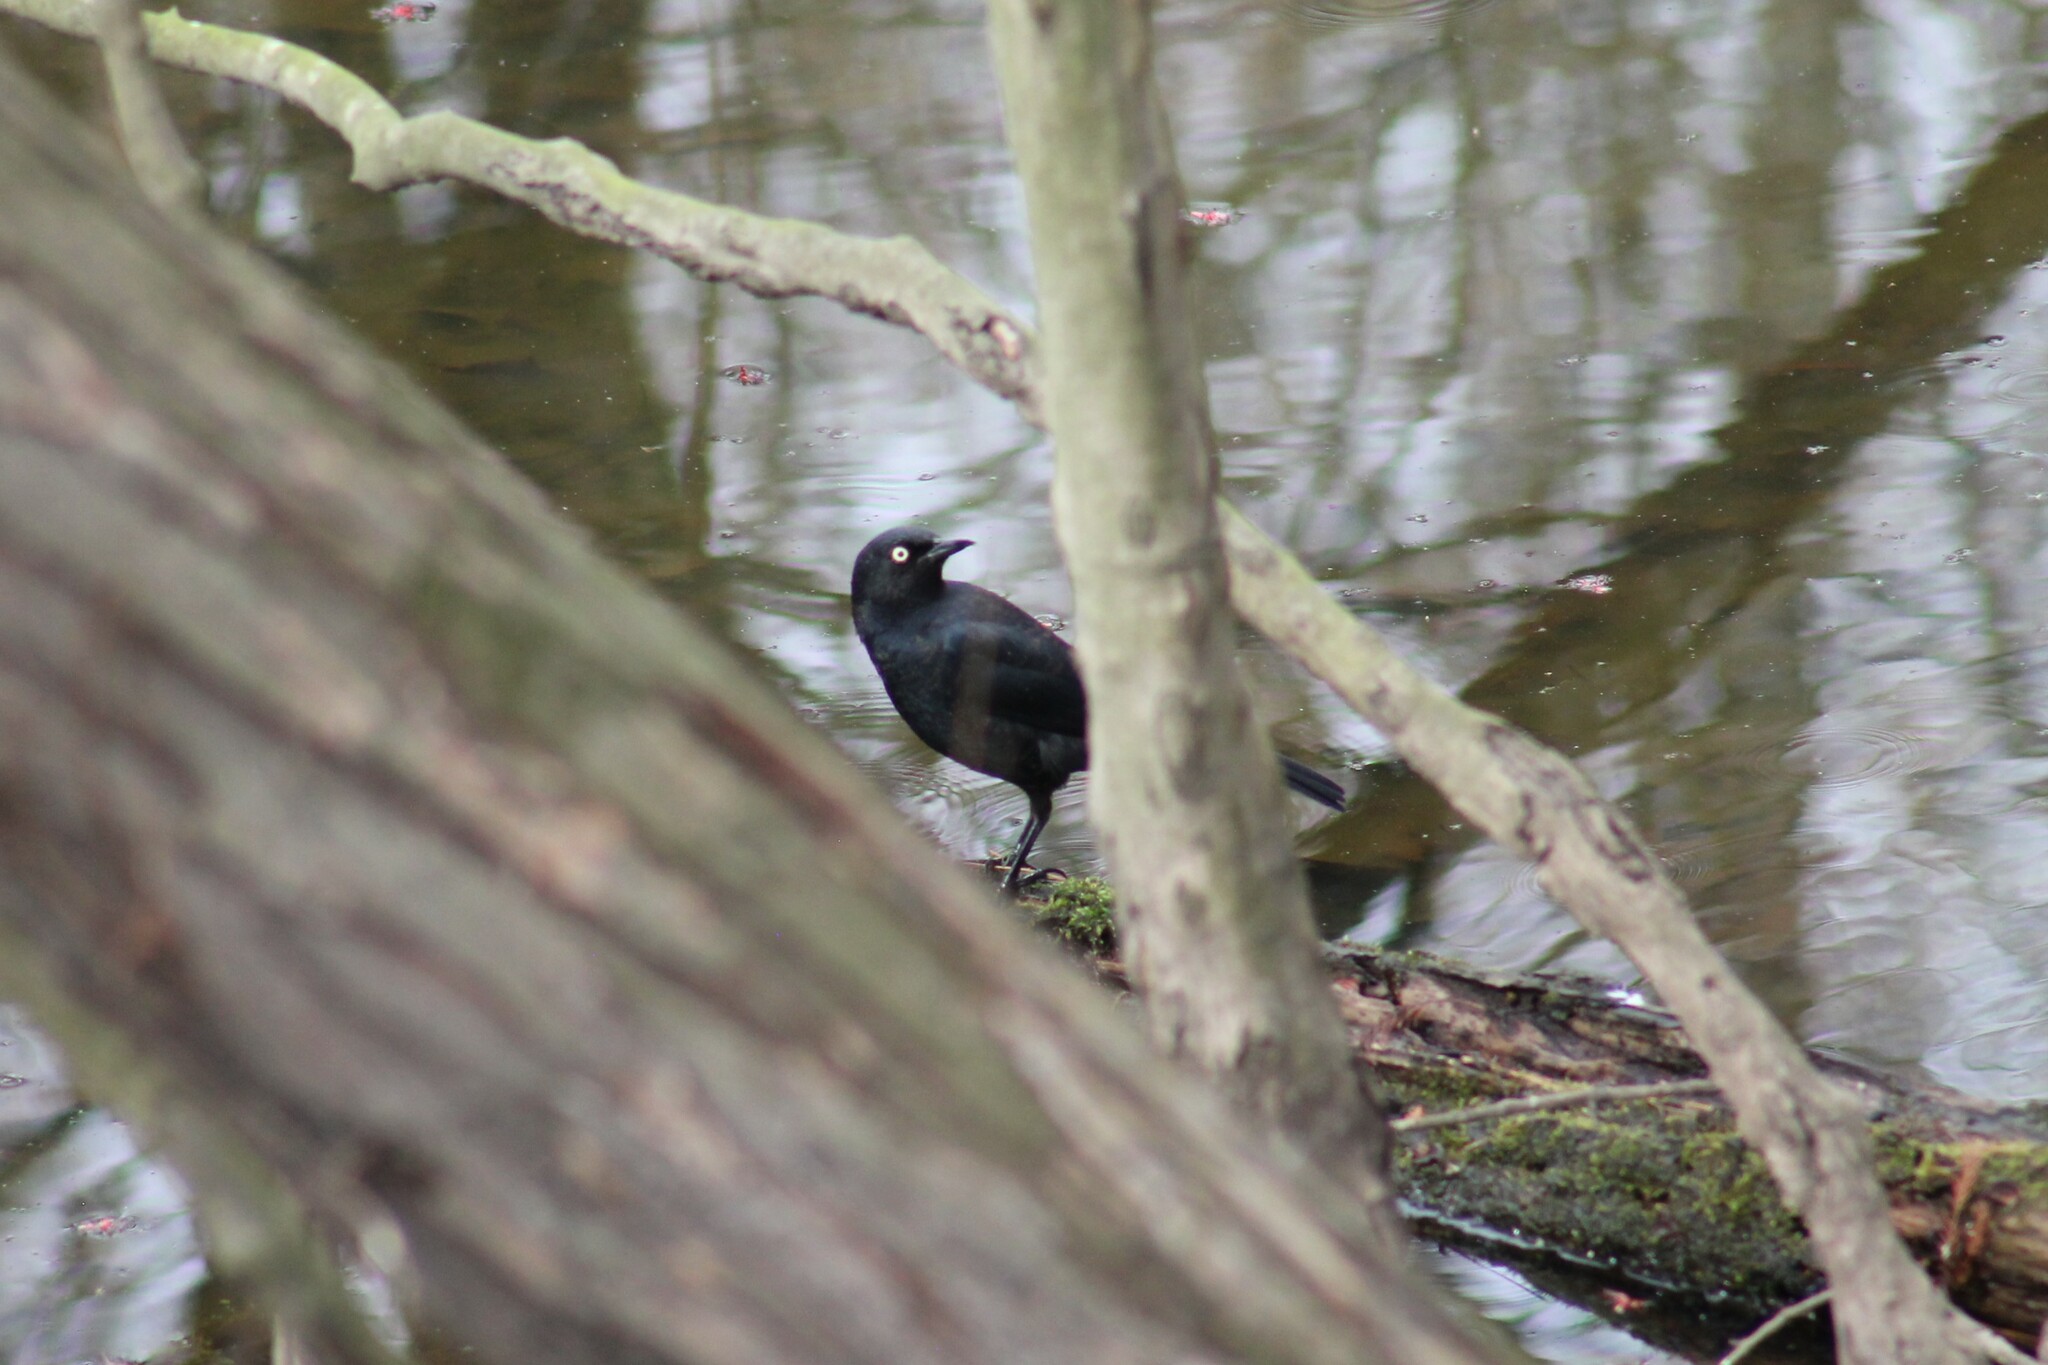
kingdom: Animalia
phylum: Chordata
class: Aves
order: Passeriformes
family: Icteridae
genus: Euphagus
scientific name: Euphagus carolinus
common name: Rusty blackbird
